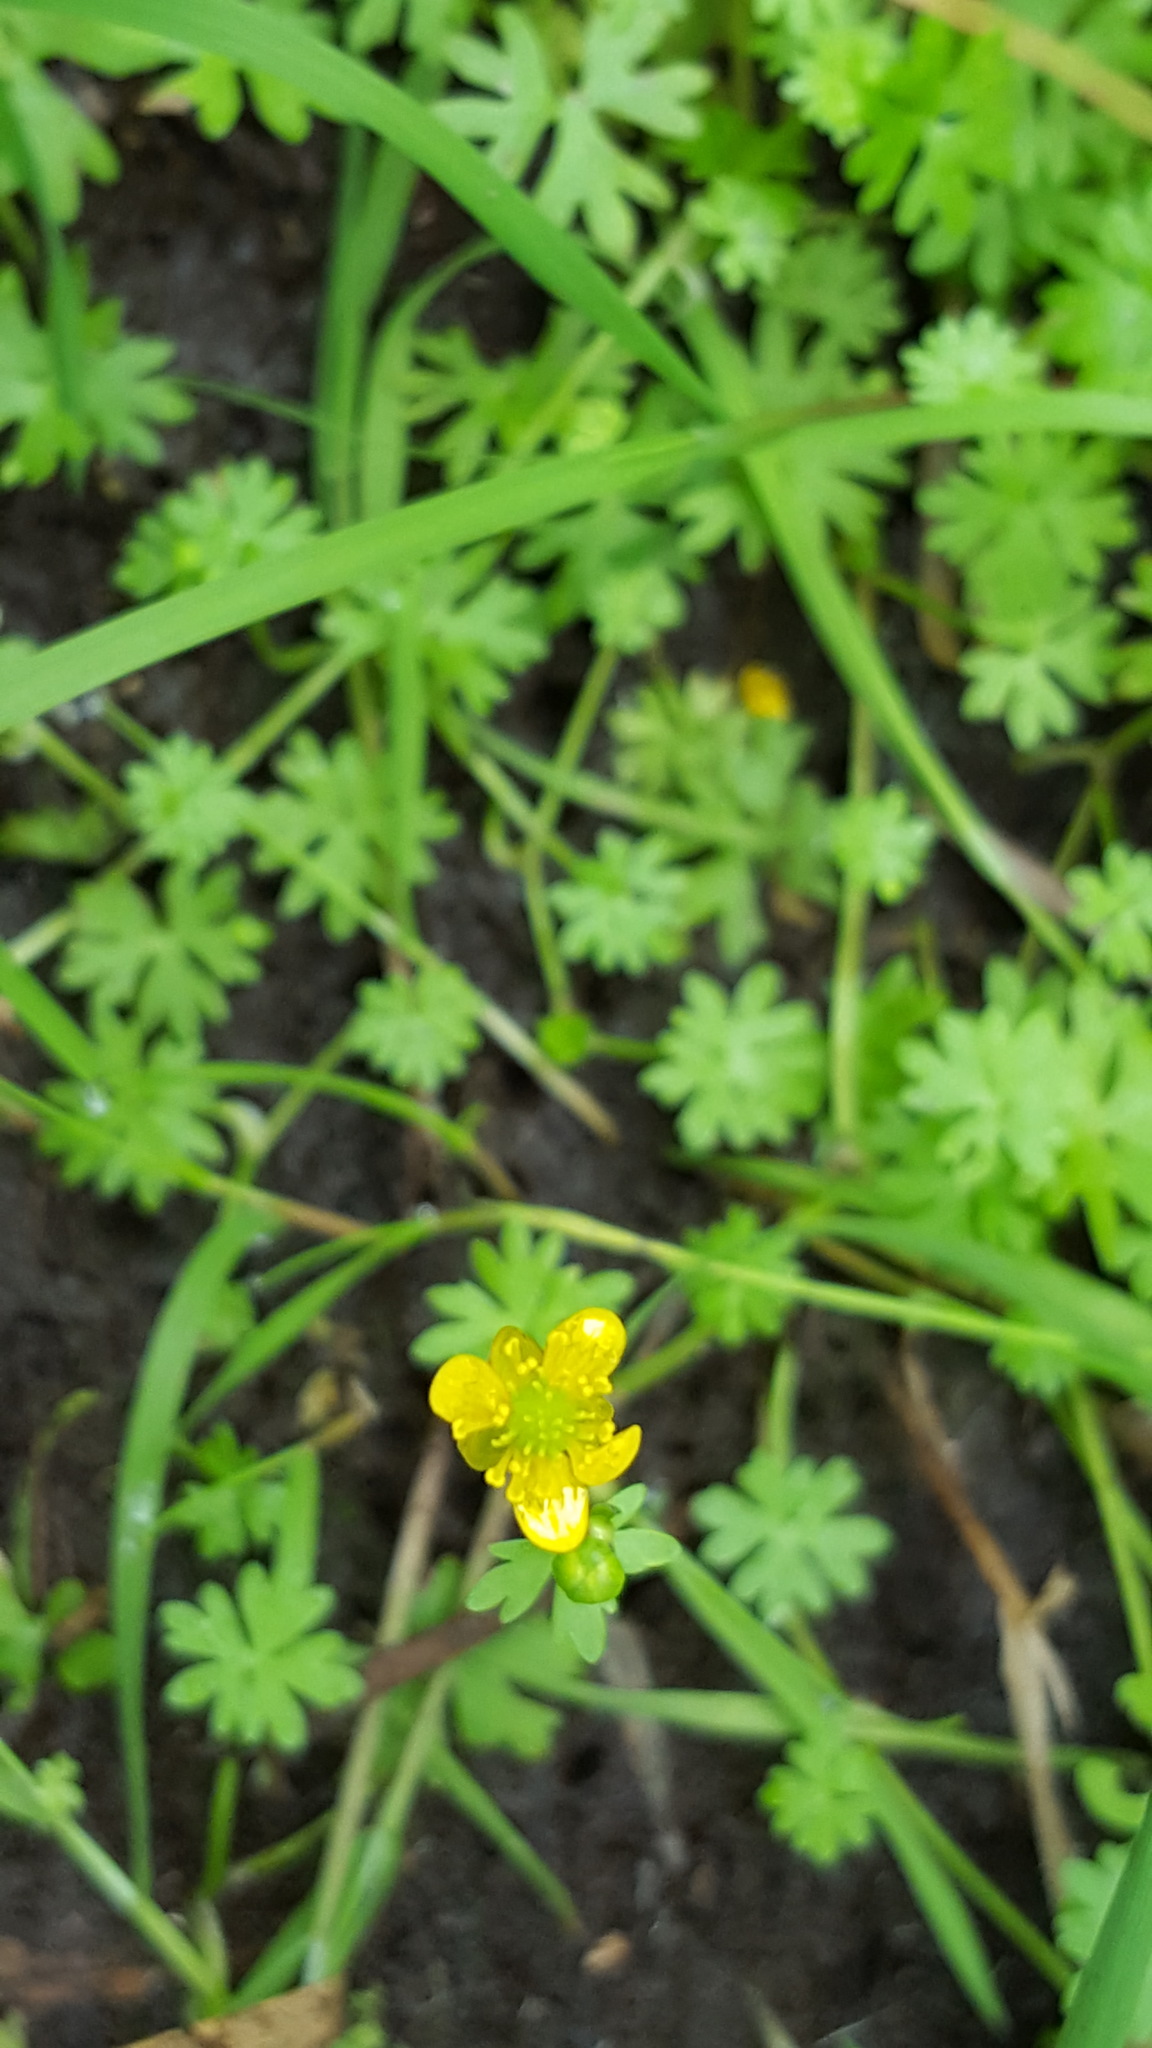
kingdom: Plantae
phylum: Tracheophyta
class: Magnoliopsida
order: Ranunculales
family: Ranunculaceae
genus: Ranunculus
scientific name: Ranunculus gmelinii
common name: Gmelin's buttercup
